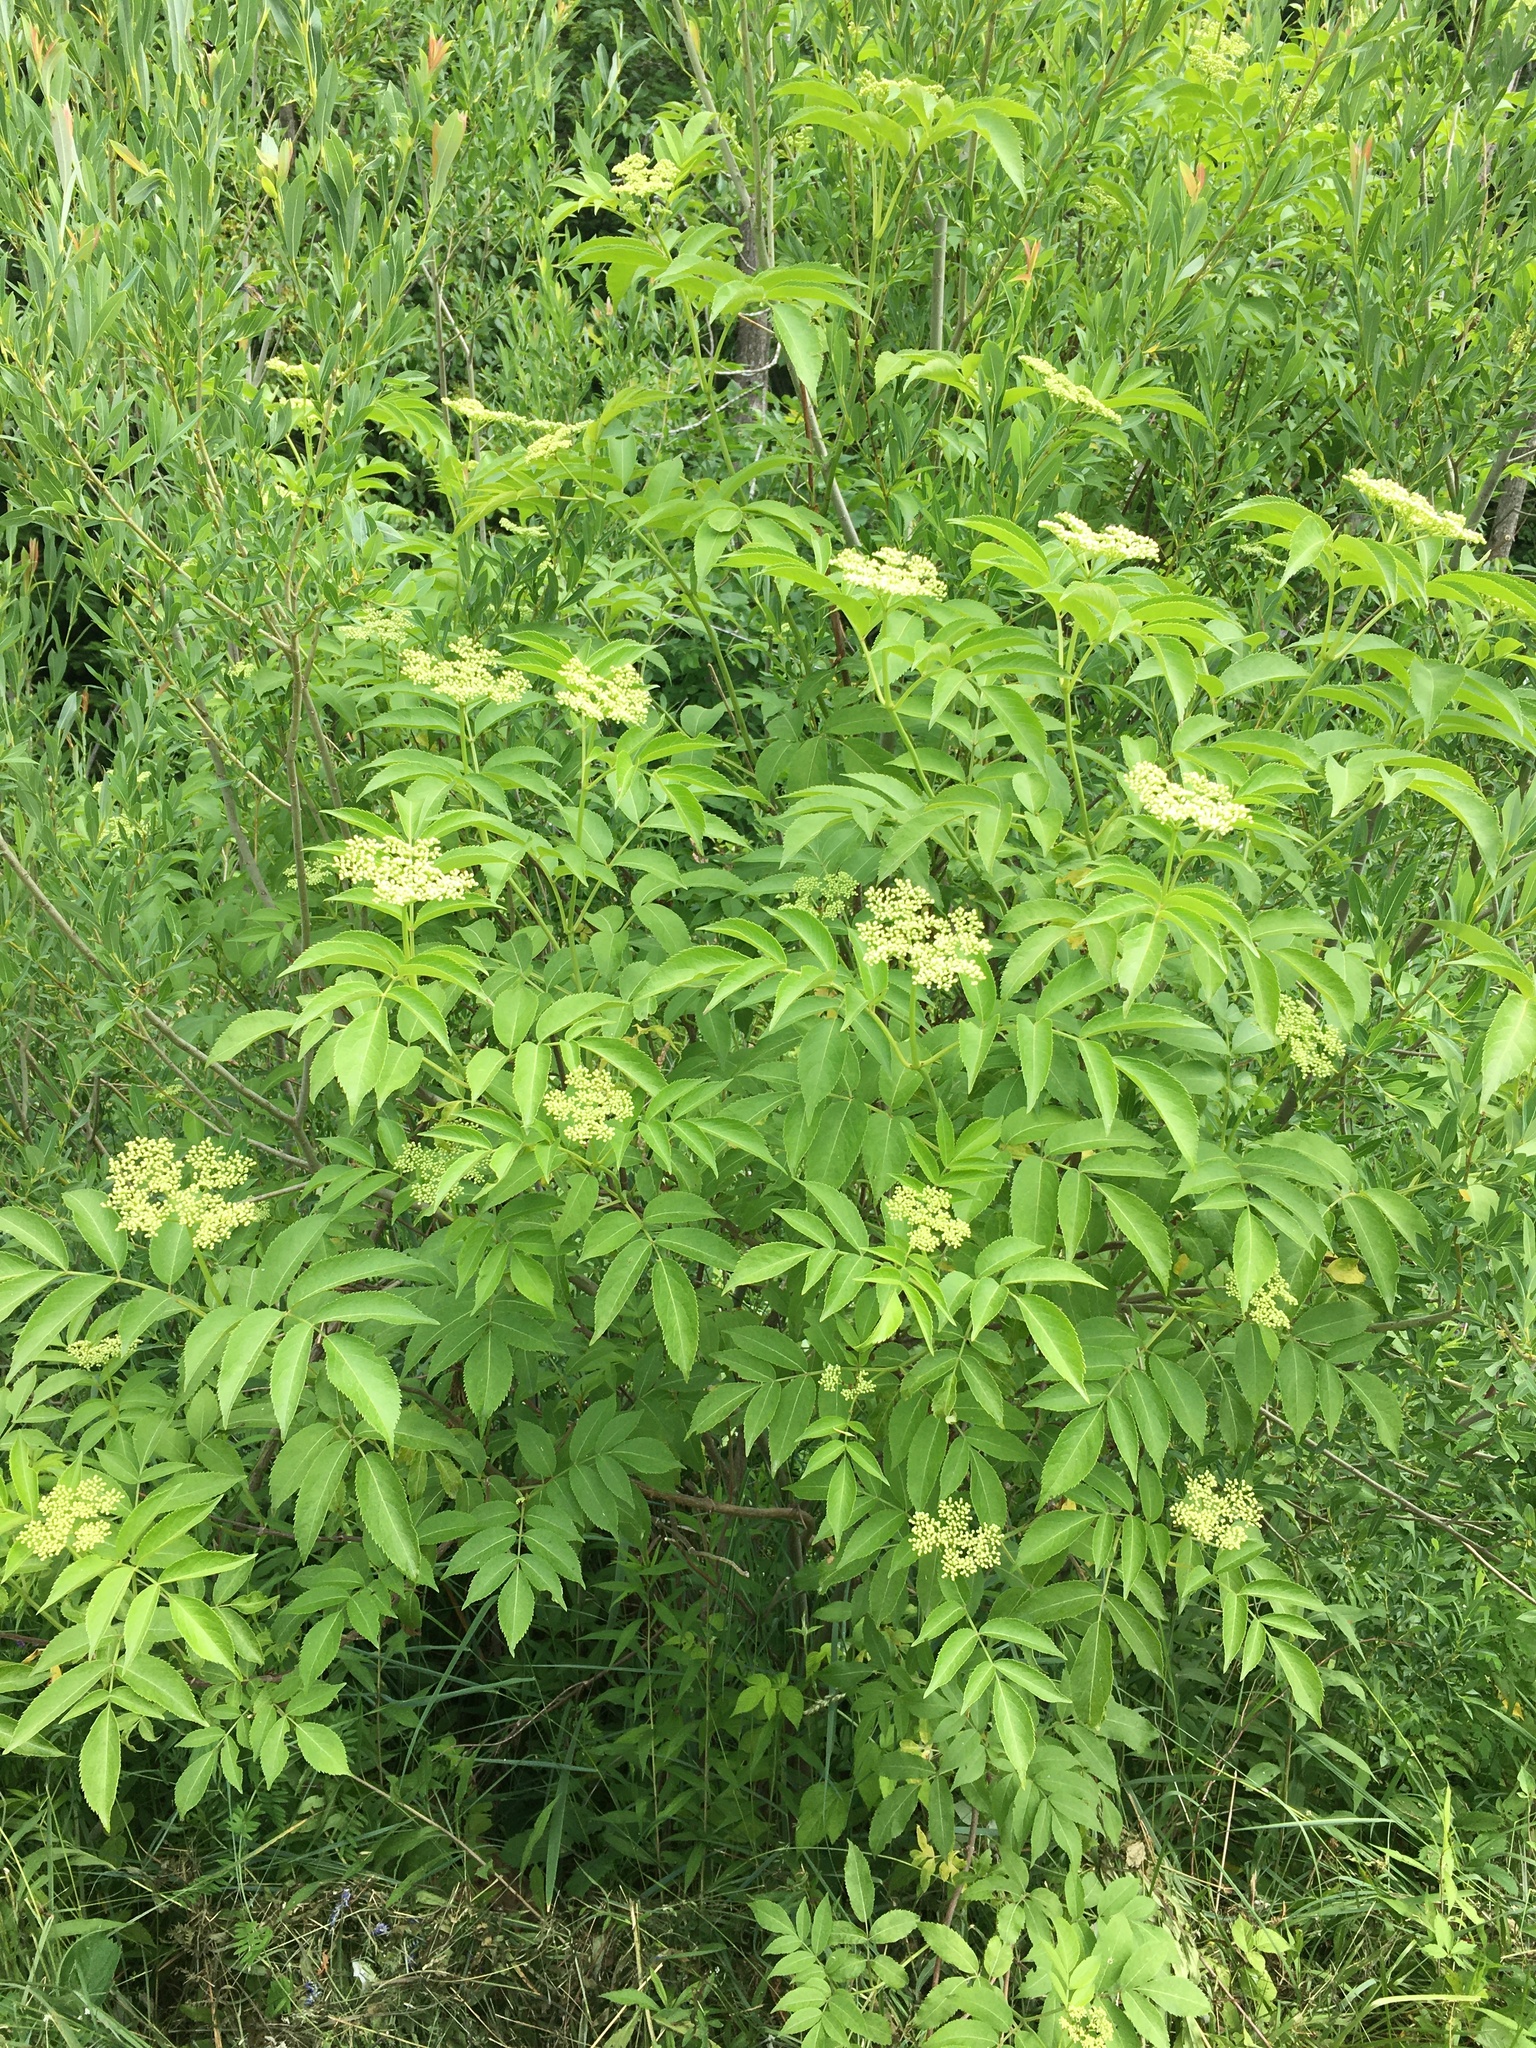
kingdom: Plantae
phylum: Tracheophyta
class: Magnoliopsida
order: Dipsacales
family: Viburnaceae
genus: Sambucus
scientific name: Sambucus canadensis
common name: American elder
